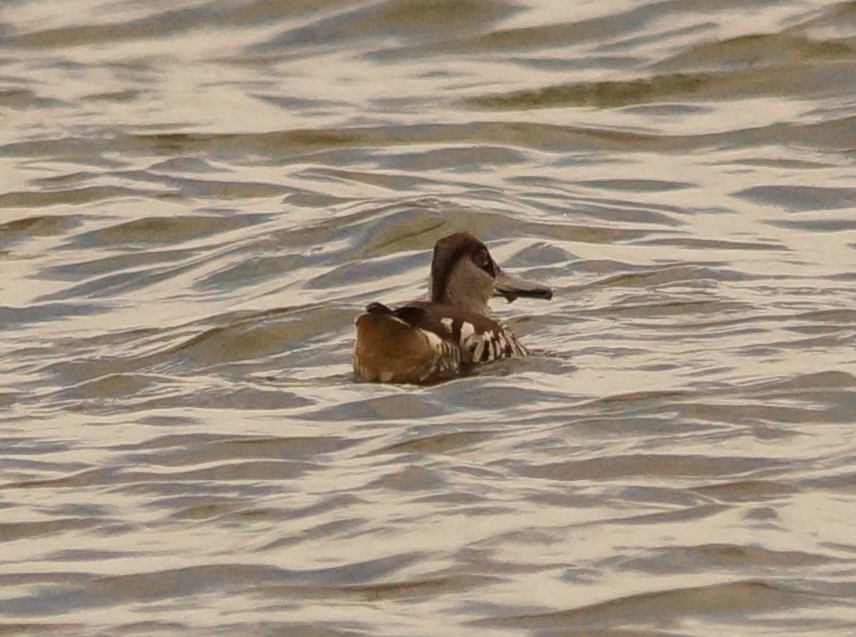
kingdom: Animalia
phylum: Chordata
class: Aves
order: Anseriformes
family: Anatidae
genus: Malacorhynchus
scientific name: Malacorhynchus membranaceus
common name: Pink-eared duck
